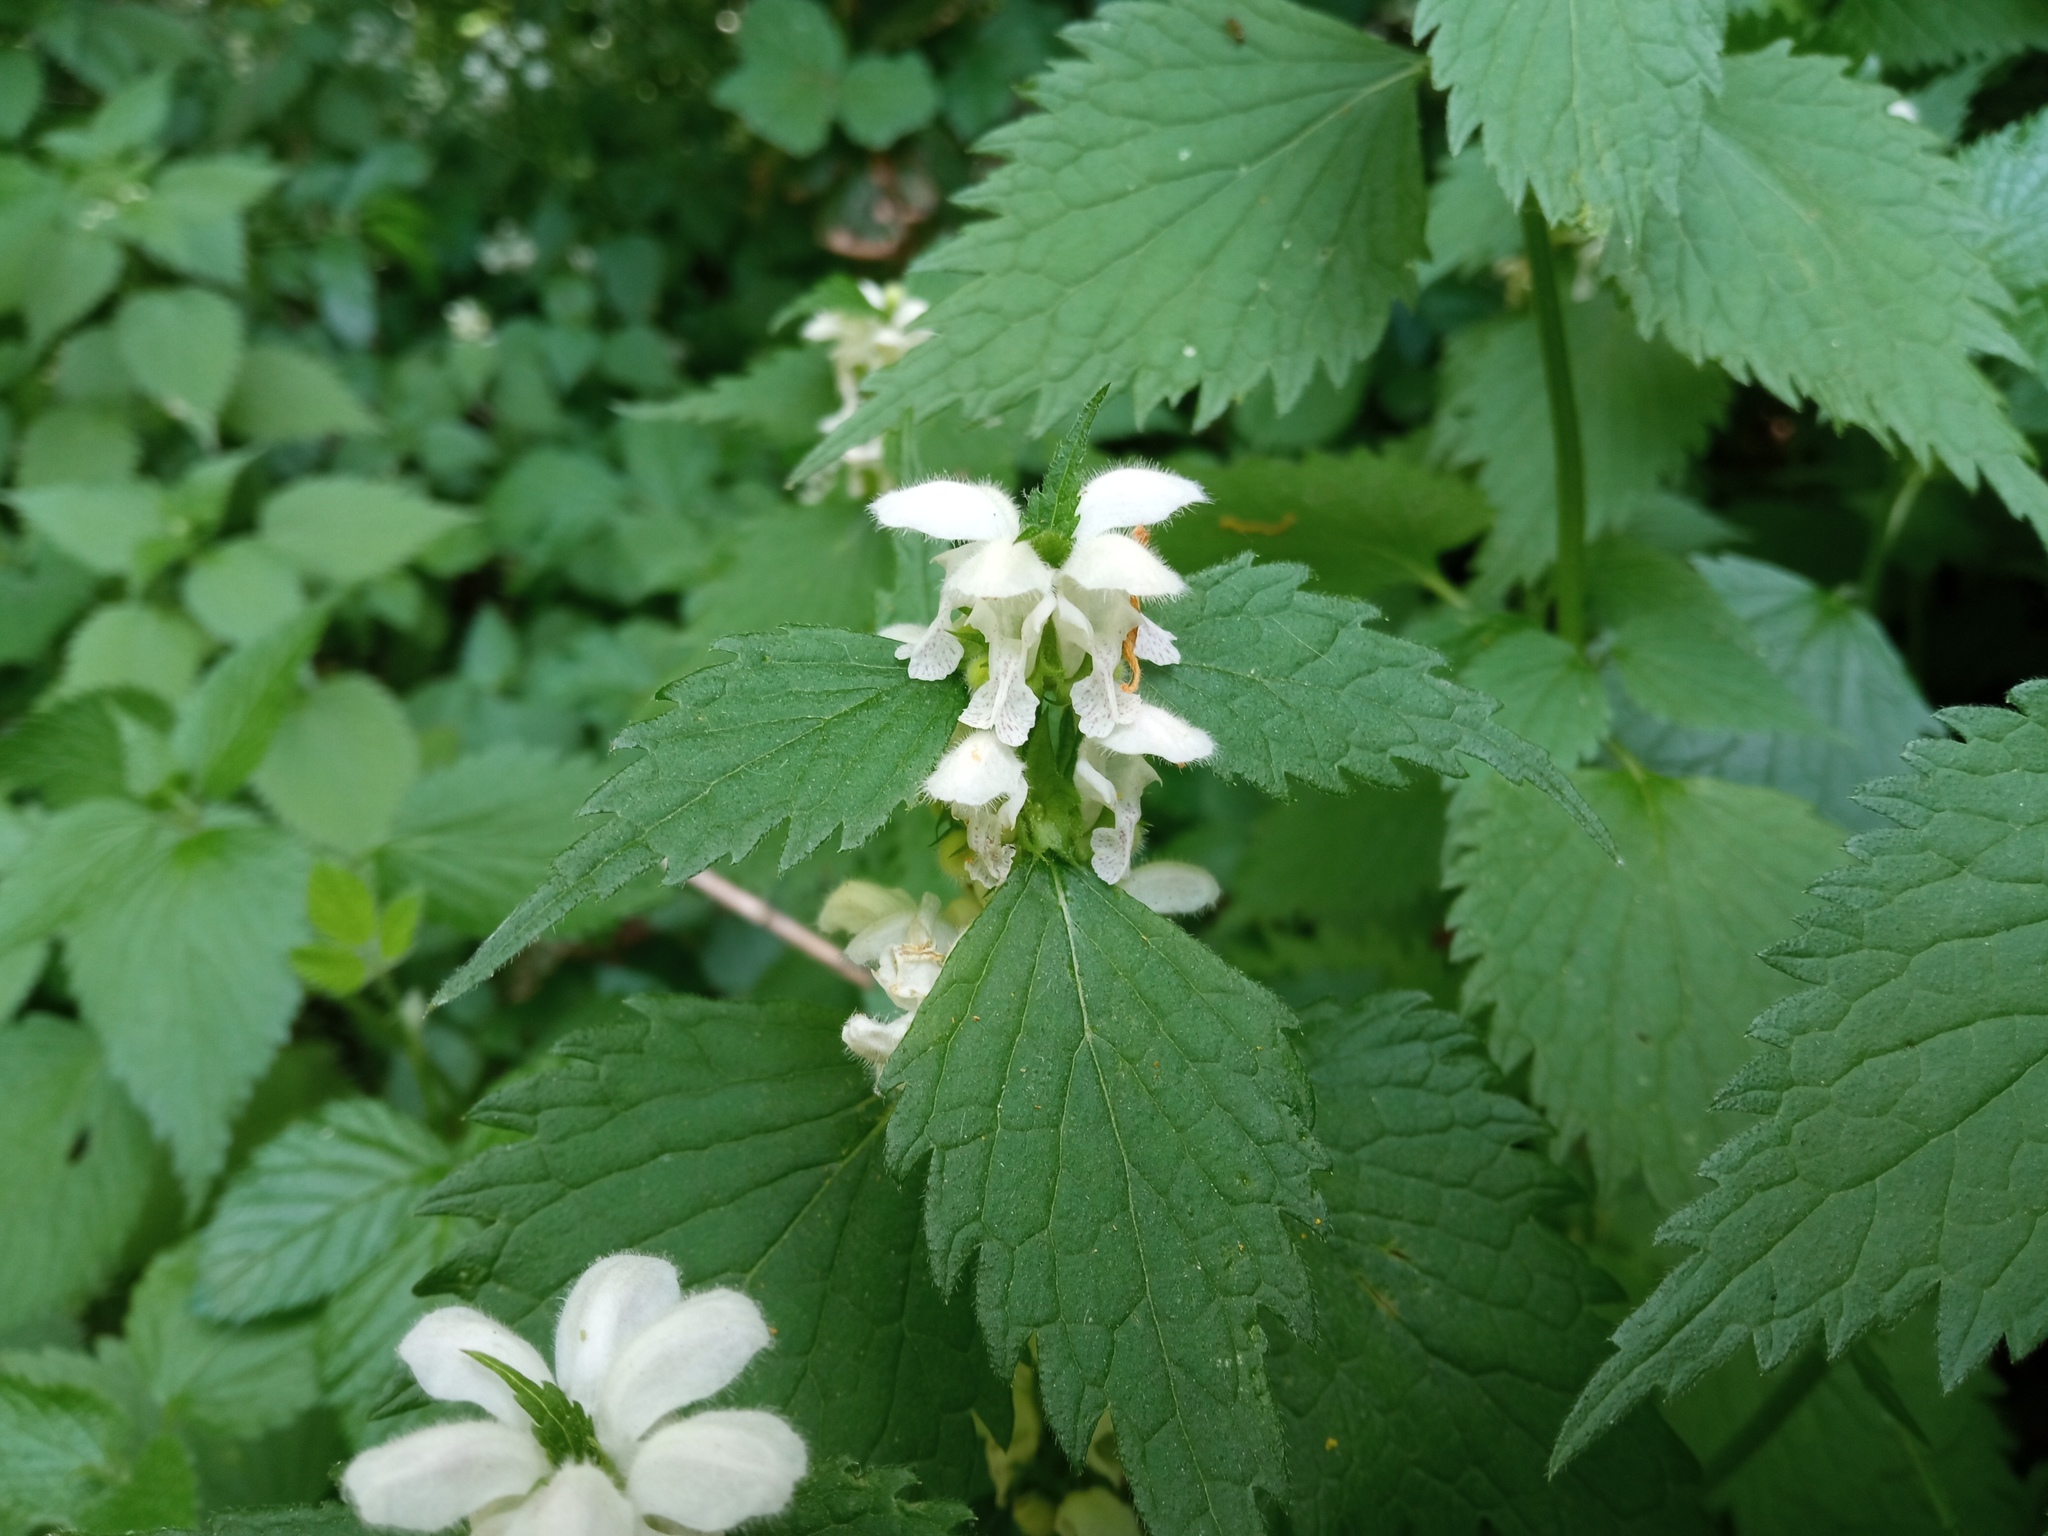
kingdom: Plantae
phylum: Tracheophyta
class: Magnoliopsida
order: Lamiales
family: Lamiaceae
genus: Lamium
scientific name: Lamium flexuosum
